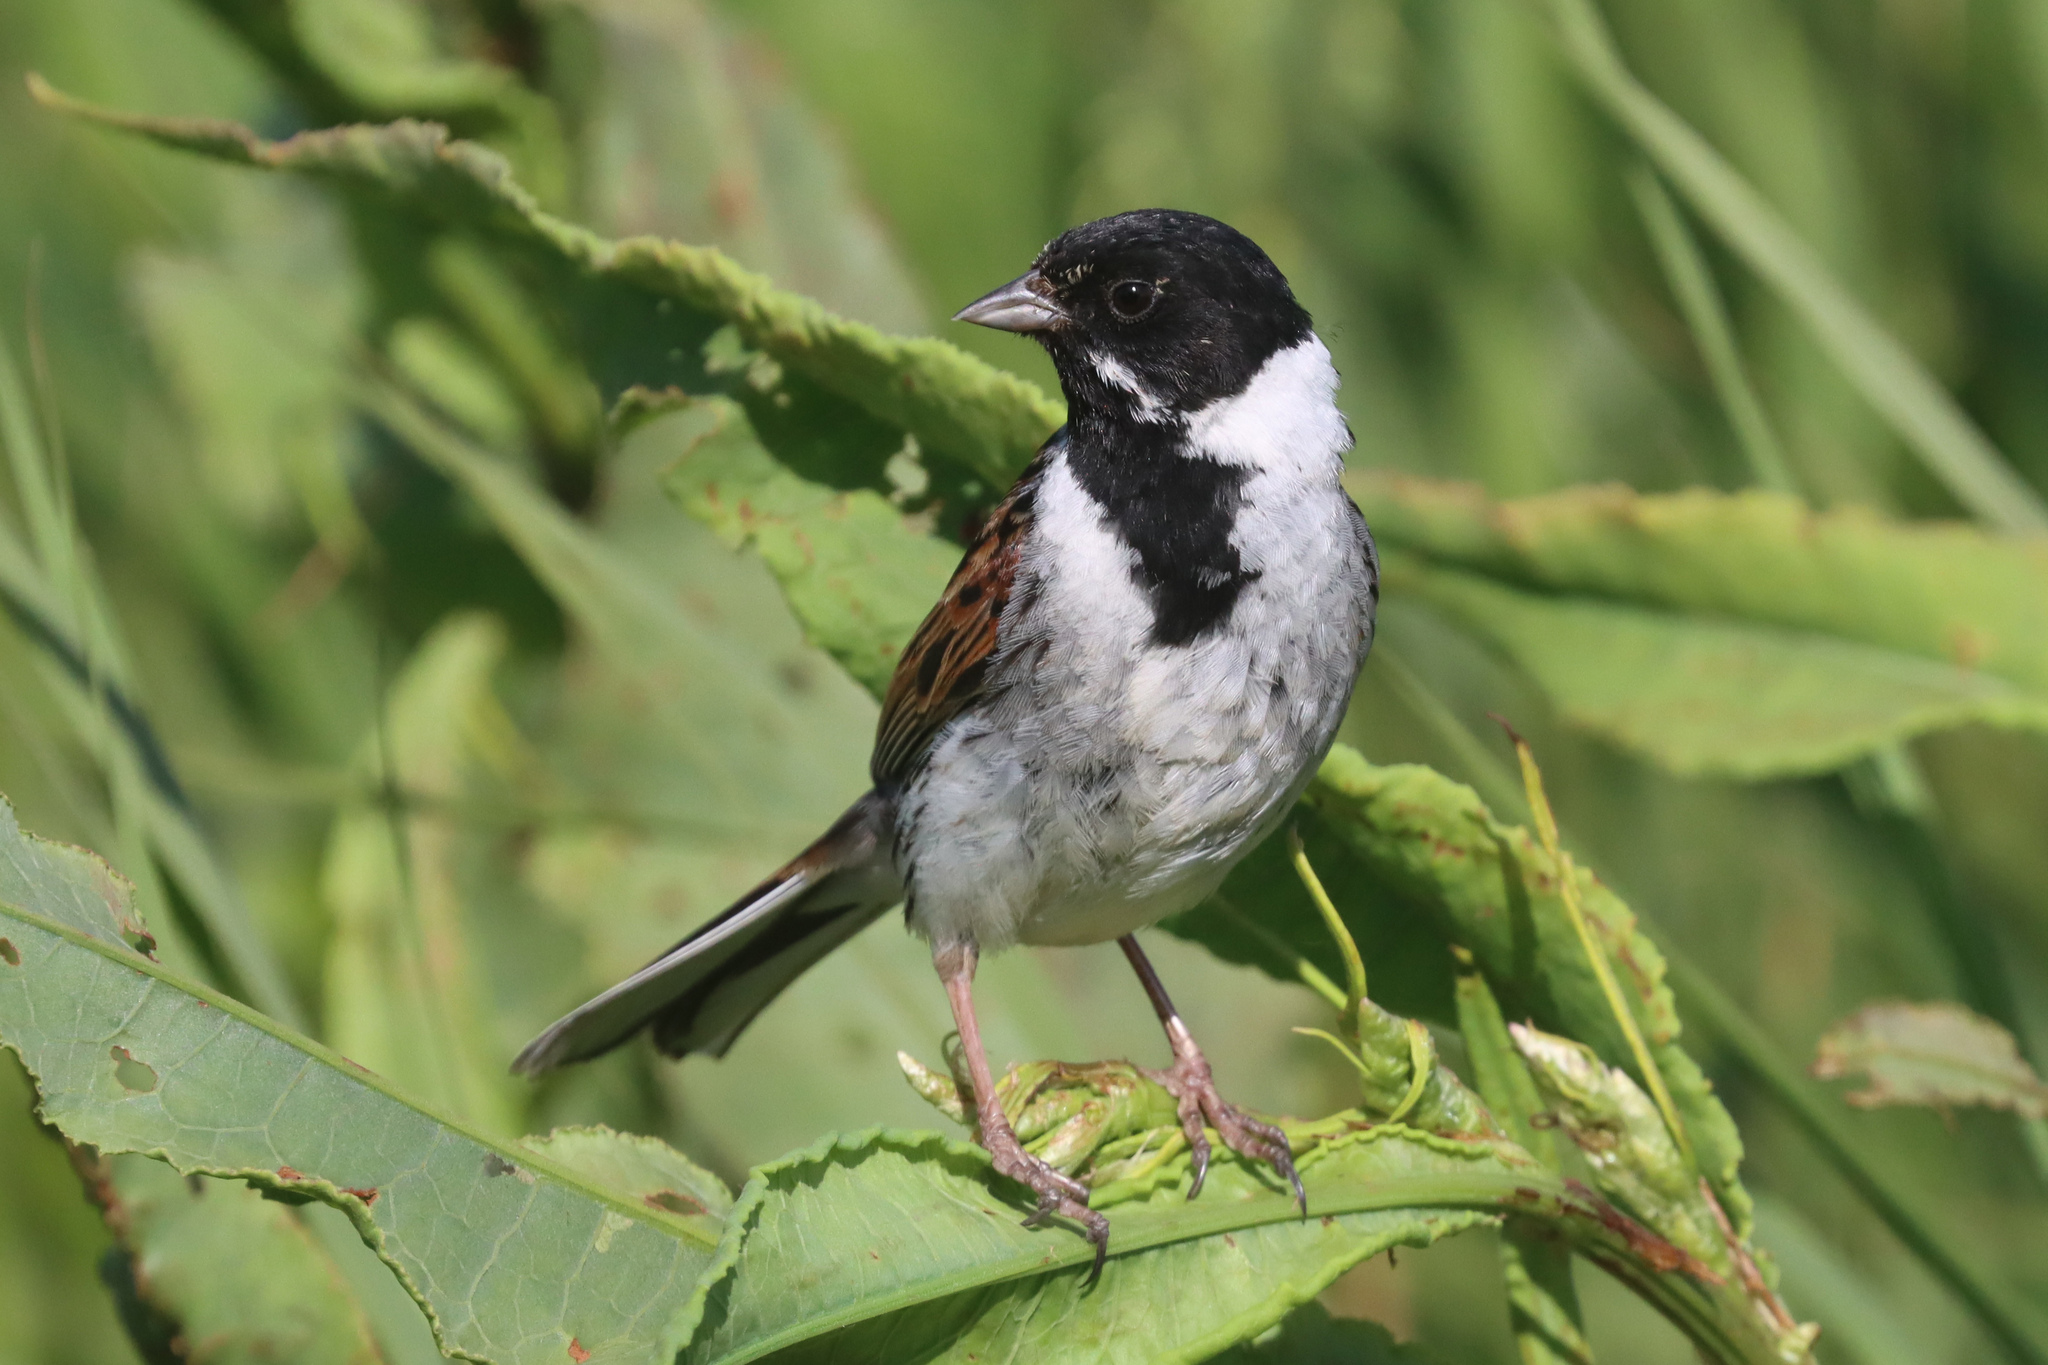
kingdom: Animalia
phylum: Chordata
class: Aves
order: Passeriformes
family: Emberizidae
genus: Emberiza
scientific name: Emberiza schoeniclus
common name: Reed bunting
